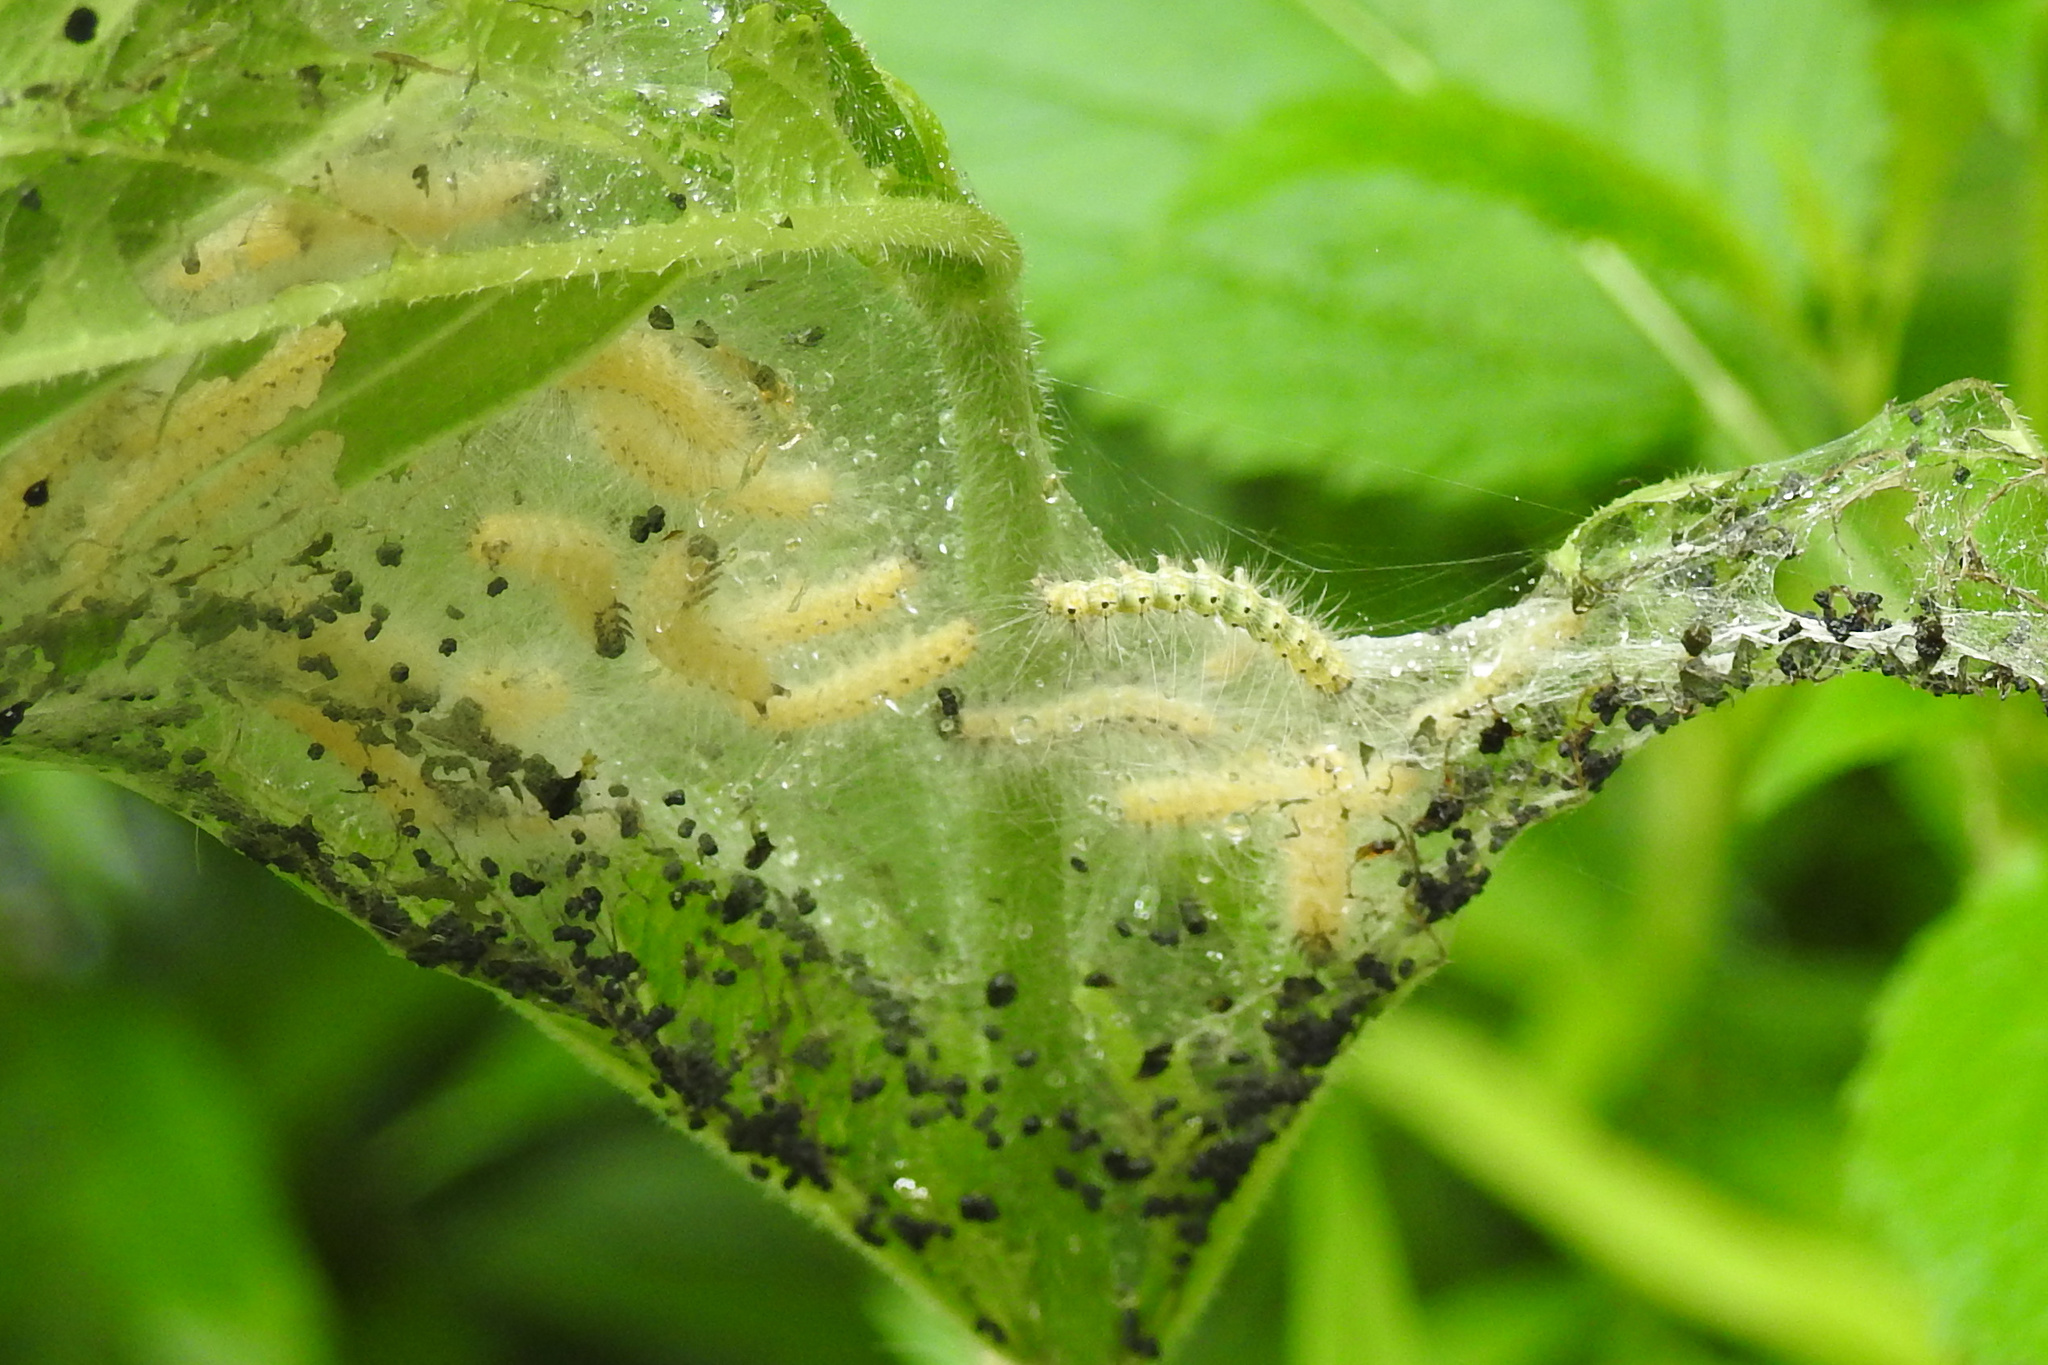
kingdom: Animalia
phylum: Arthropoda
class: Insecta
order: Lepidoptera
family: Erebidae
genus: Hyphantria
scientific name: Hyphantria cunea
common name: American white moth
